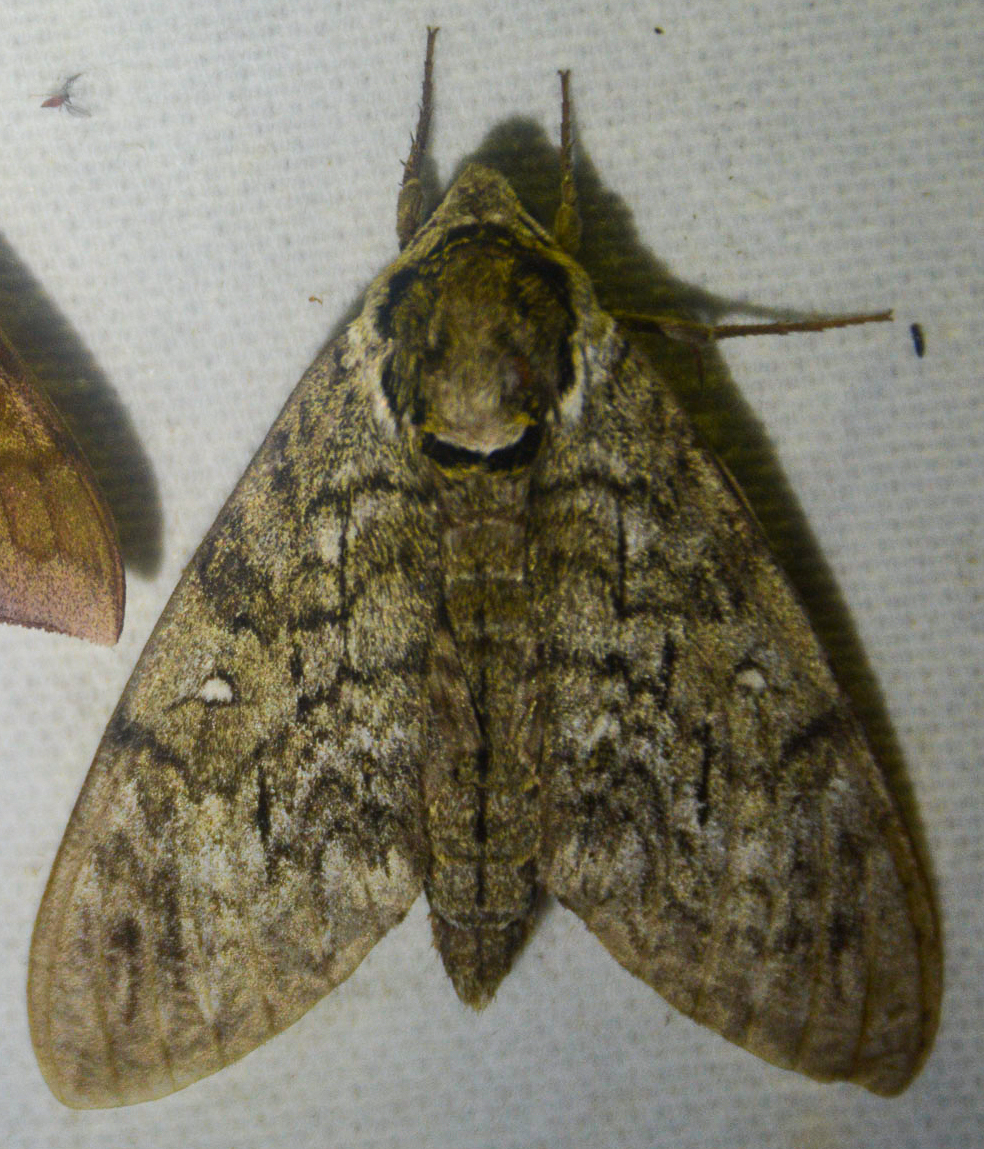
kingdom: Animalia
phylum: Arthropoda
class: Insecta
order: Lepidoptera
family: Sphingidae
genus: Ceratomia
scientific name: Ceratomia undulosa
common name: Waved sphinx
